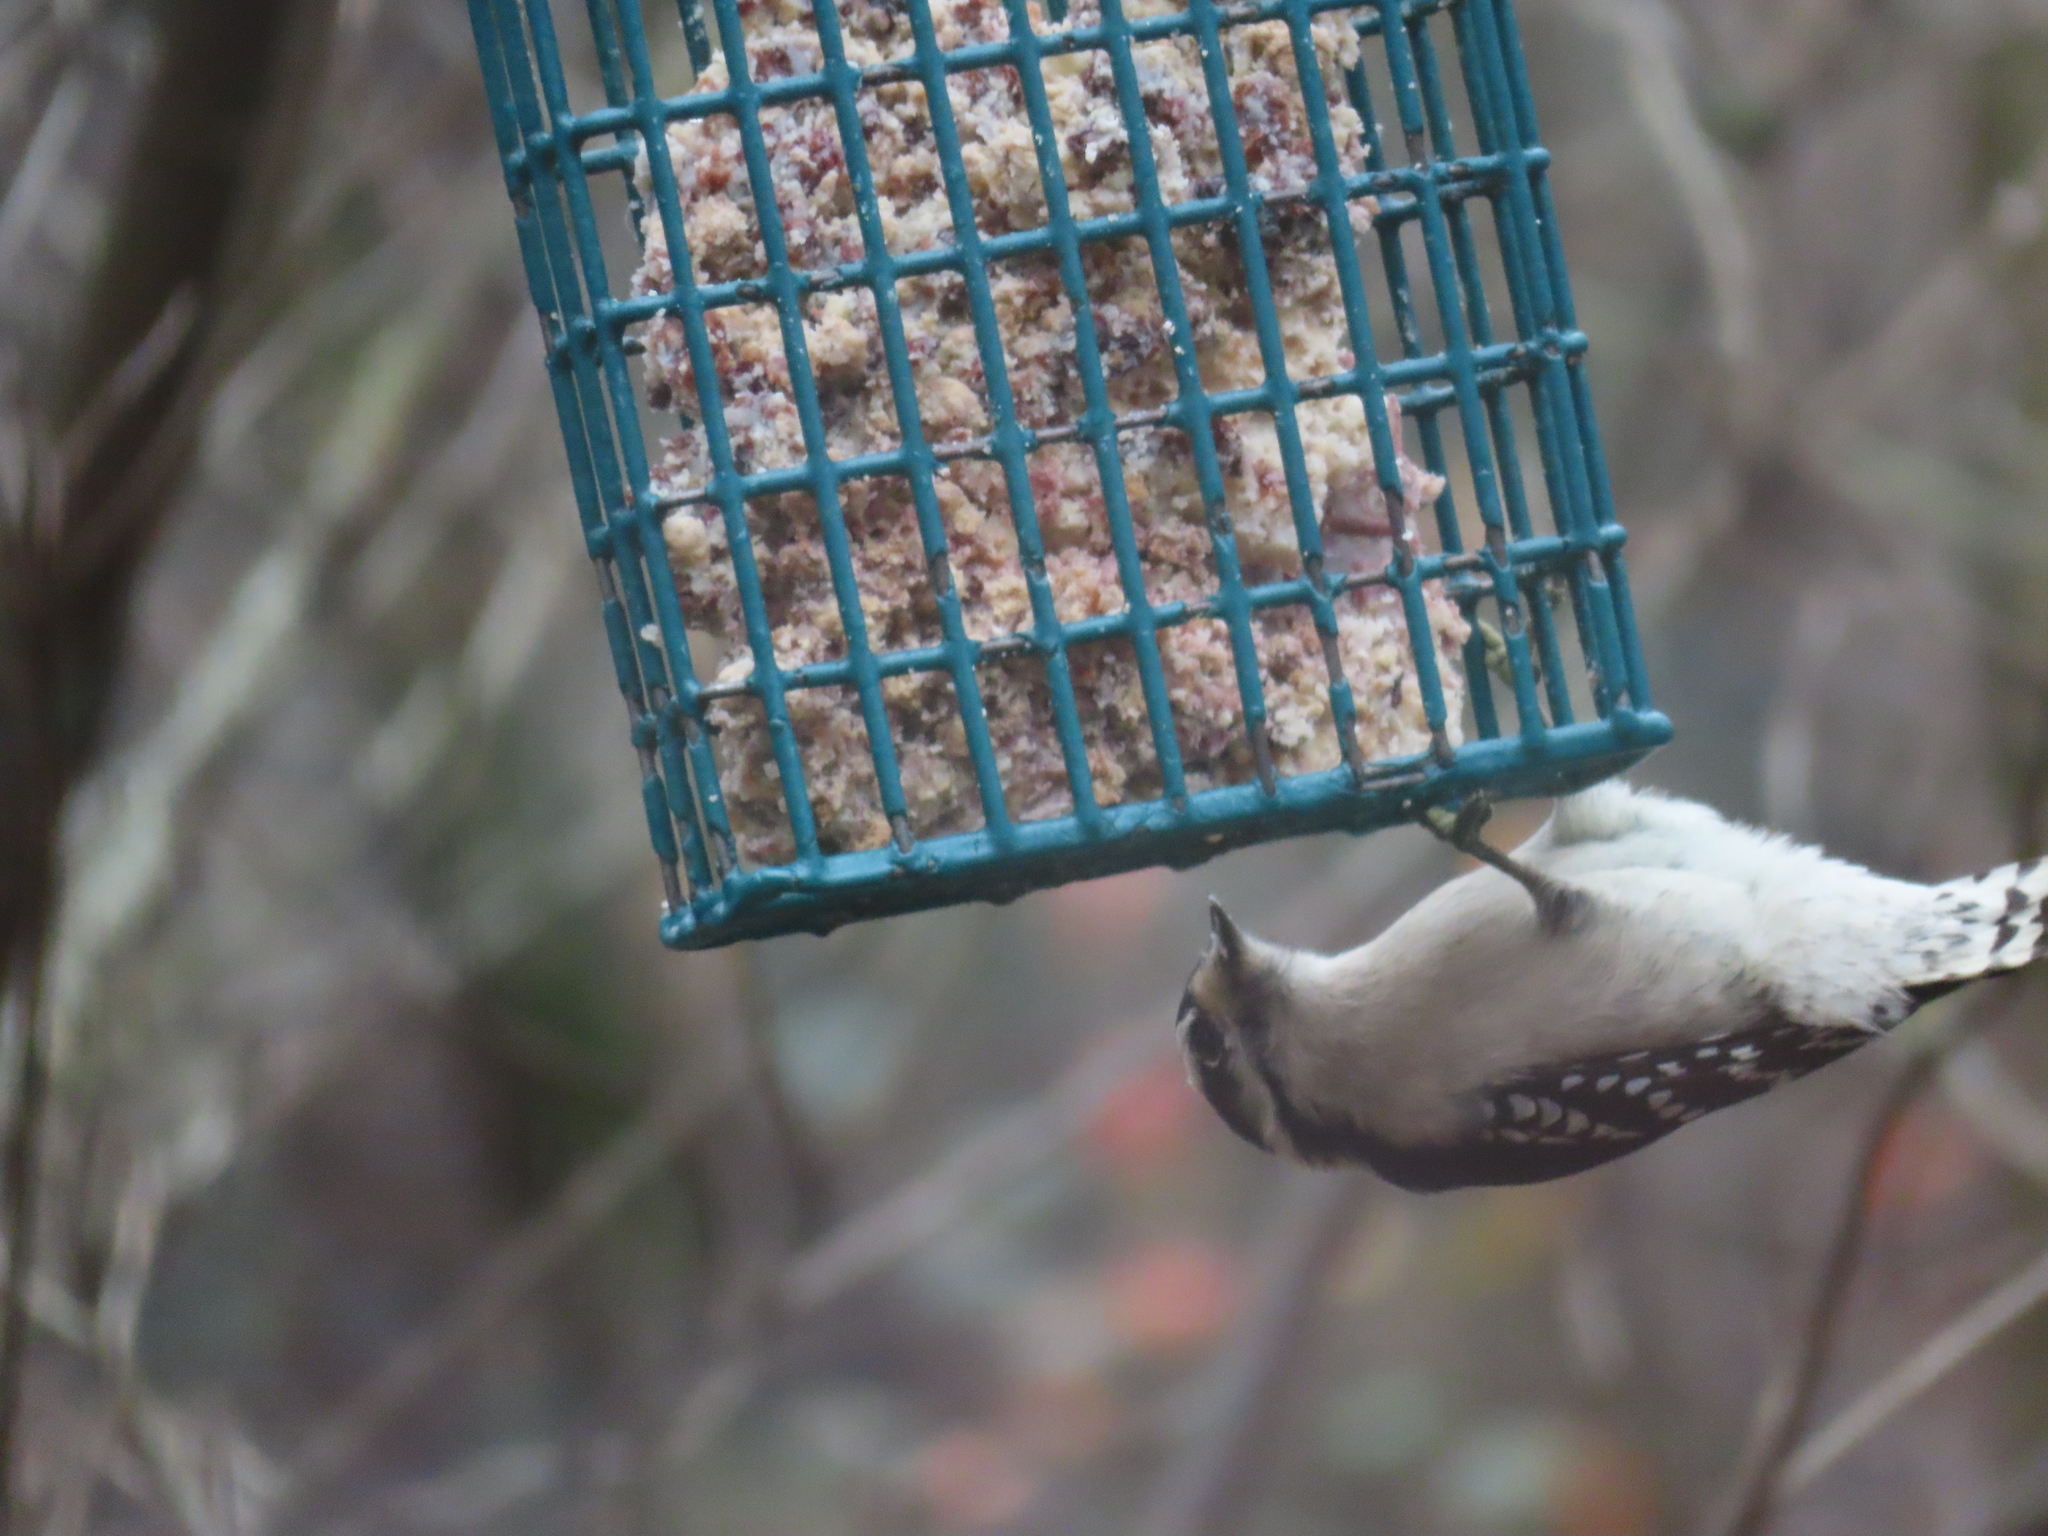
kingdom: Animalia
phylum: Chordata
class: Aves
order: Piciformes
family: Picidae
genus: Dryobates
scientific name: Dryobates pubescens
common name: Downy woodpecker
